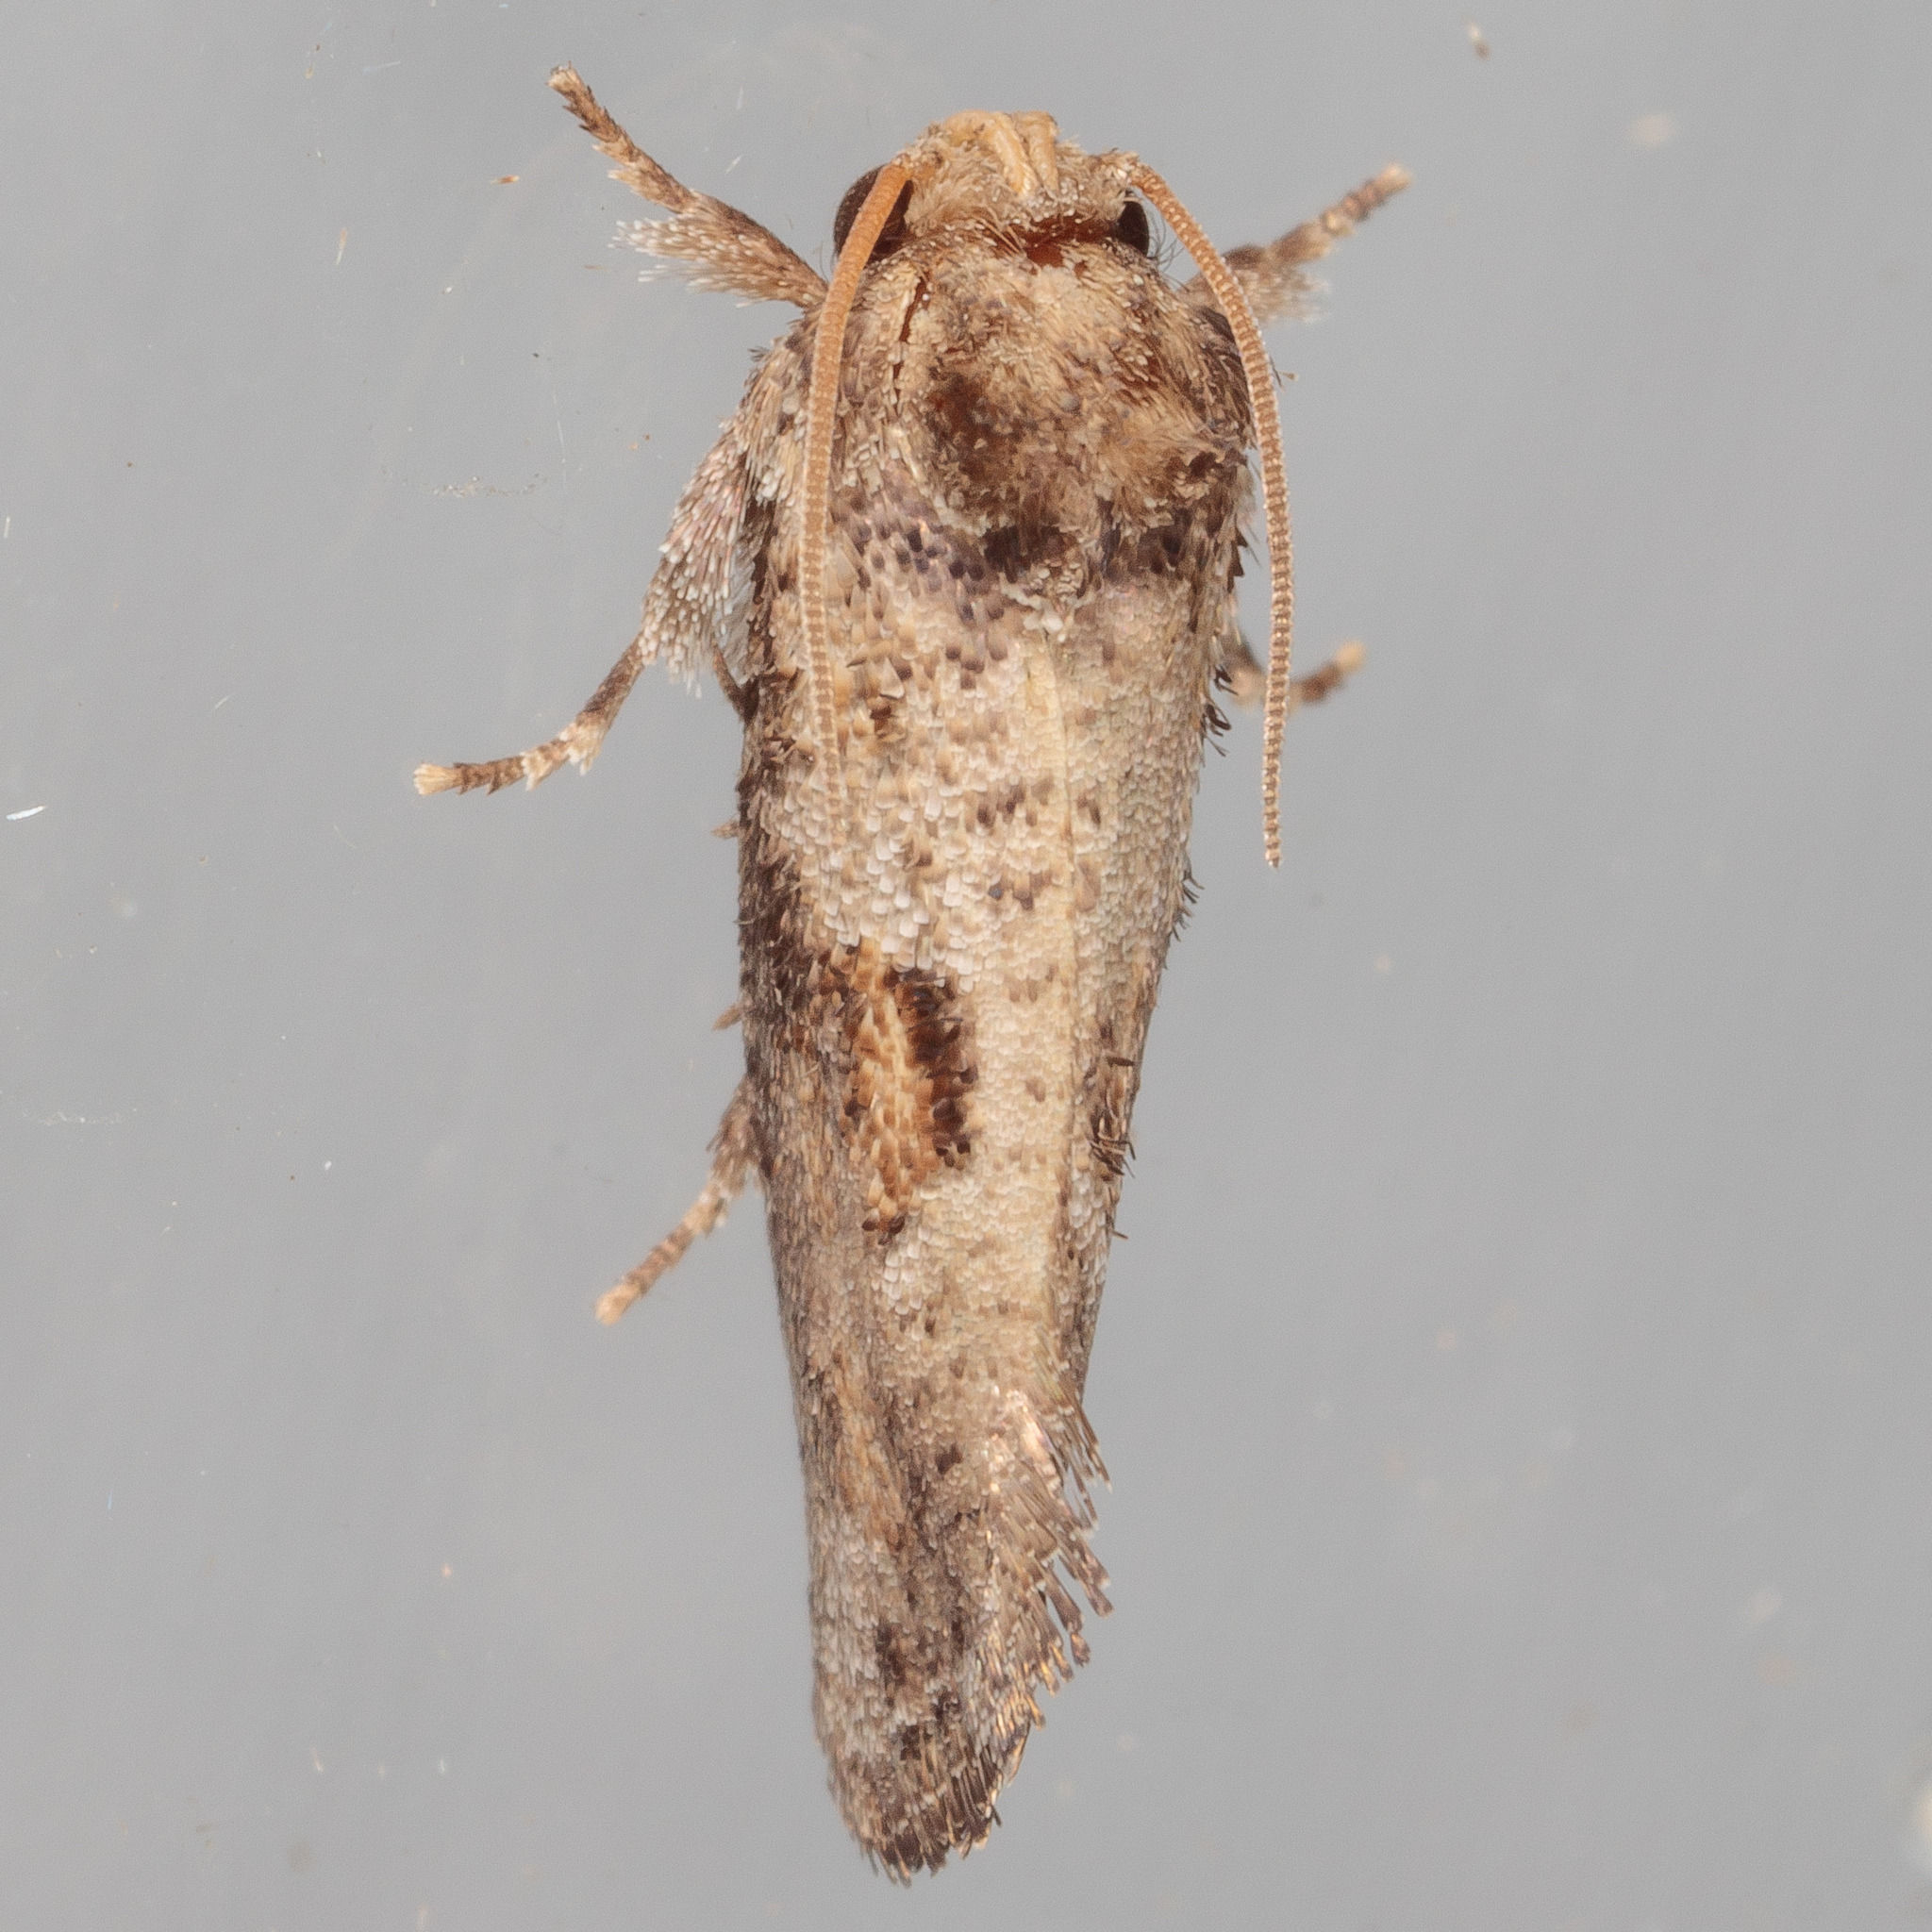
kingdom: Animalia
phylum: Arthropoda
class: Insecta
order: Lepidoptera
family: Tineidae
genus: Acrolophus
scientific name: Acrolophus piger
